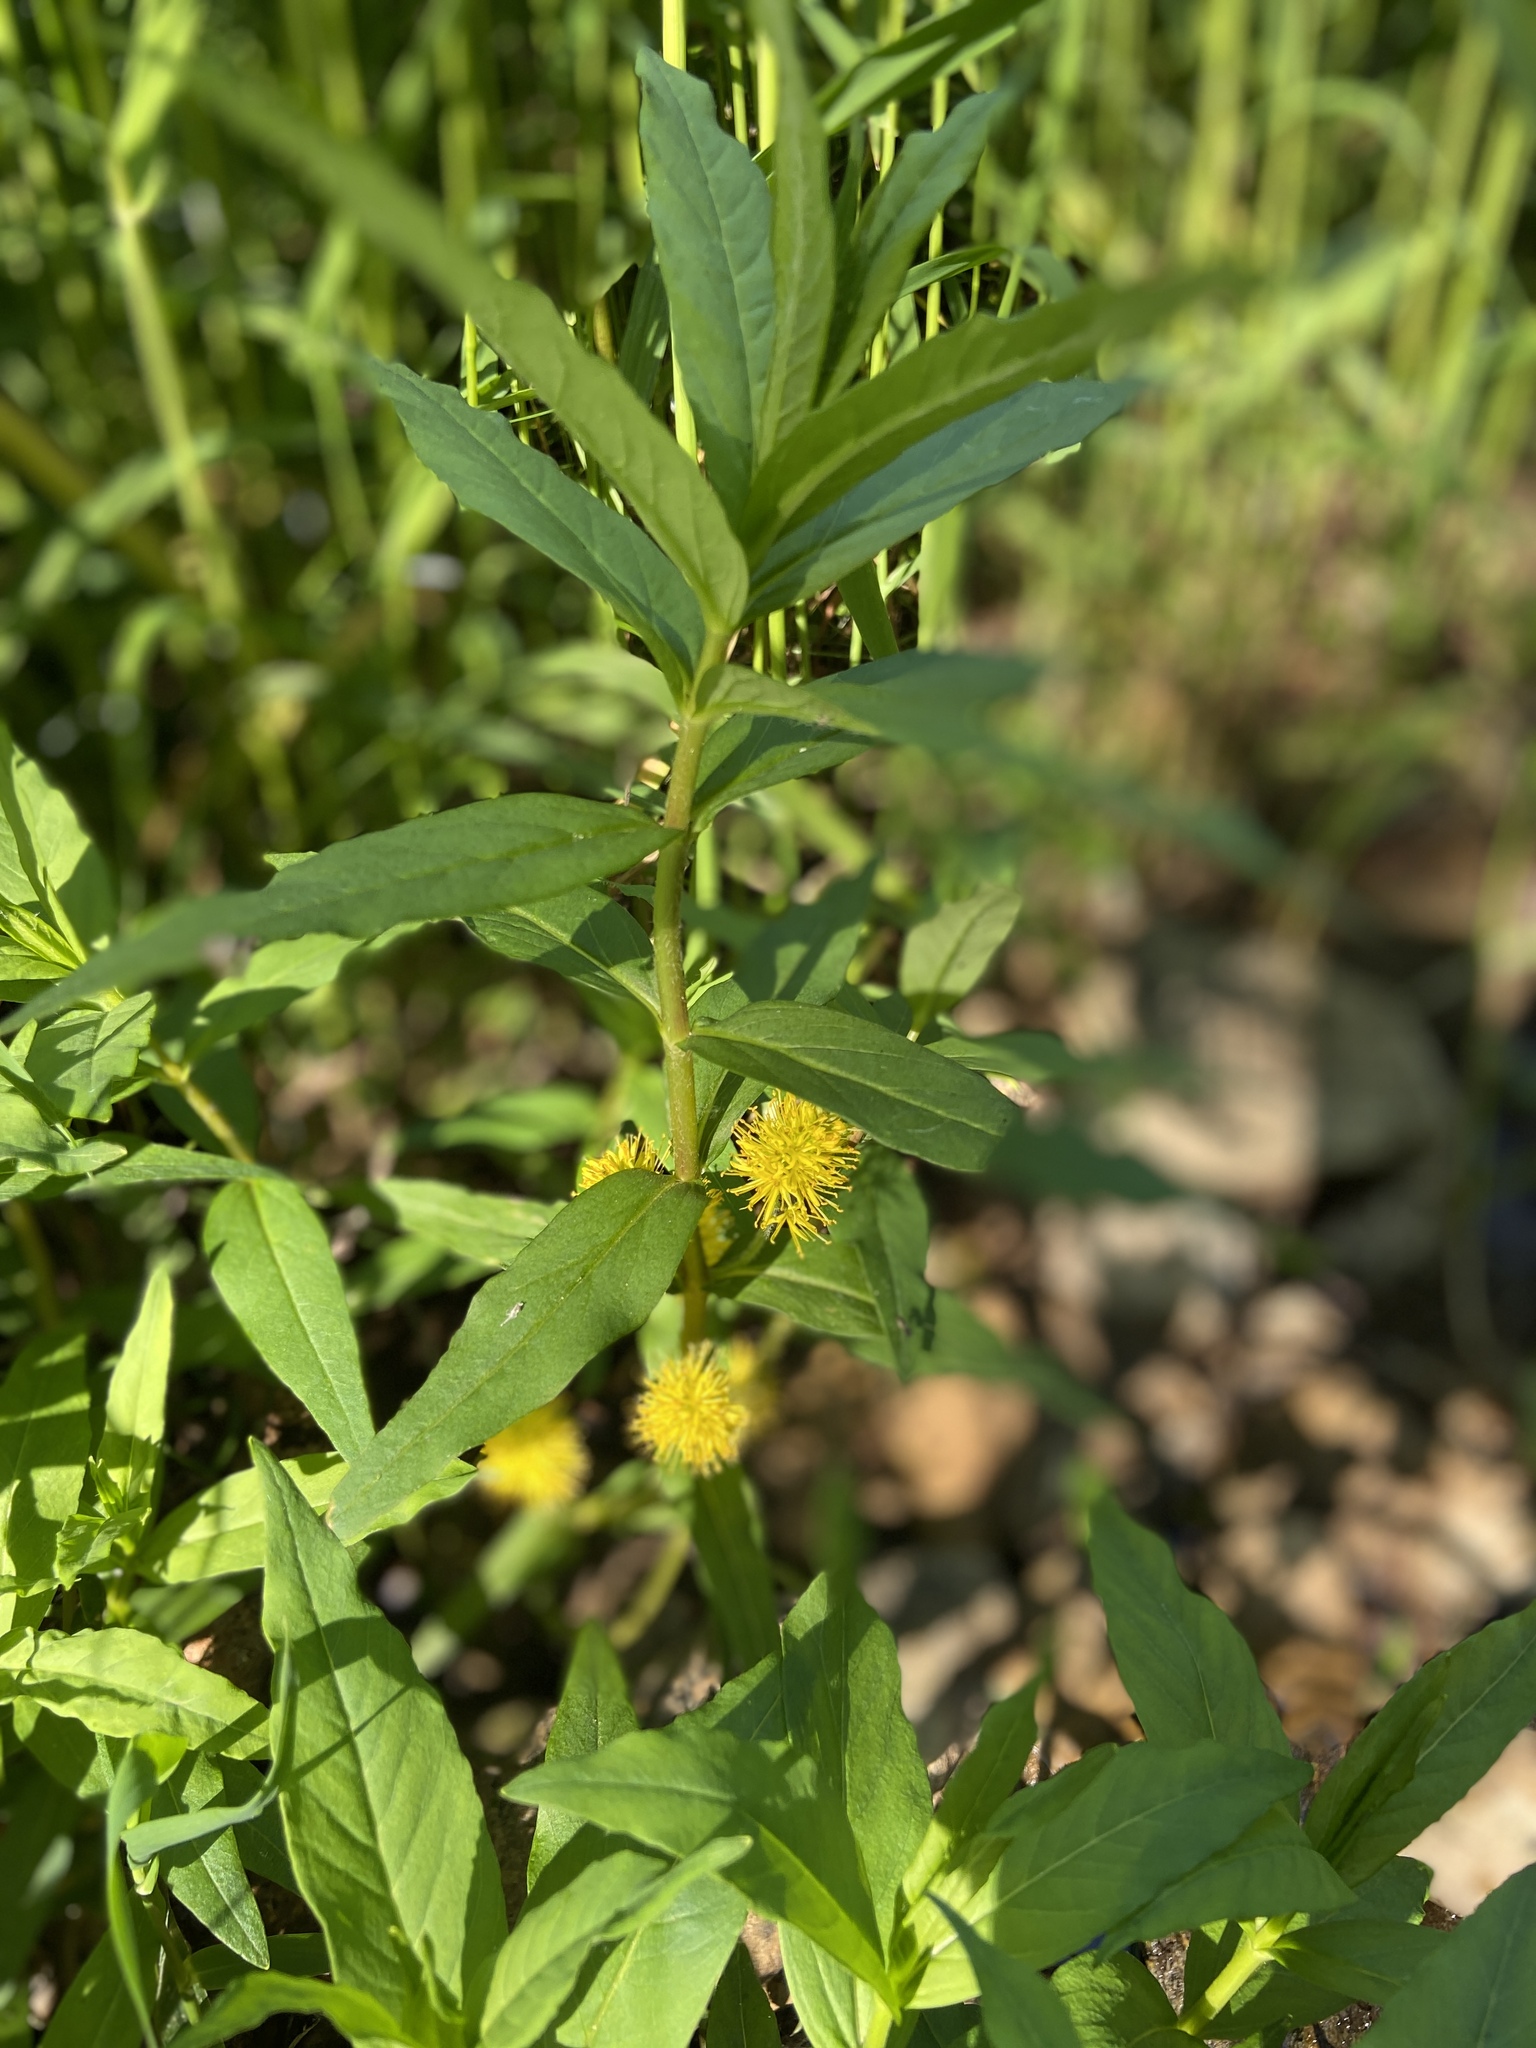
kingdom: Plantae
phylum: Tracheophyta
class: Magnoliopsida
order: Ericales
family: Primulaceae
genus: Lysimachia
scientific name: Lysimachia thyrsiflora
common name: Tufted loosestrife
